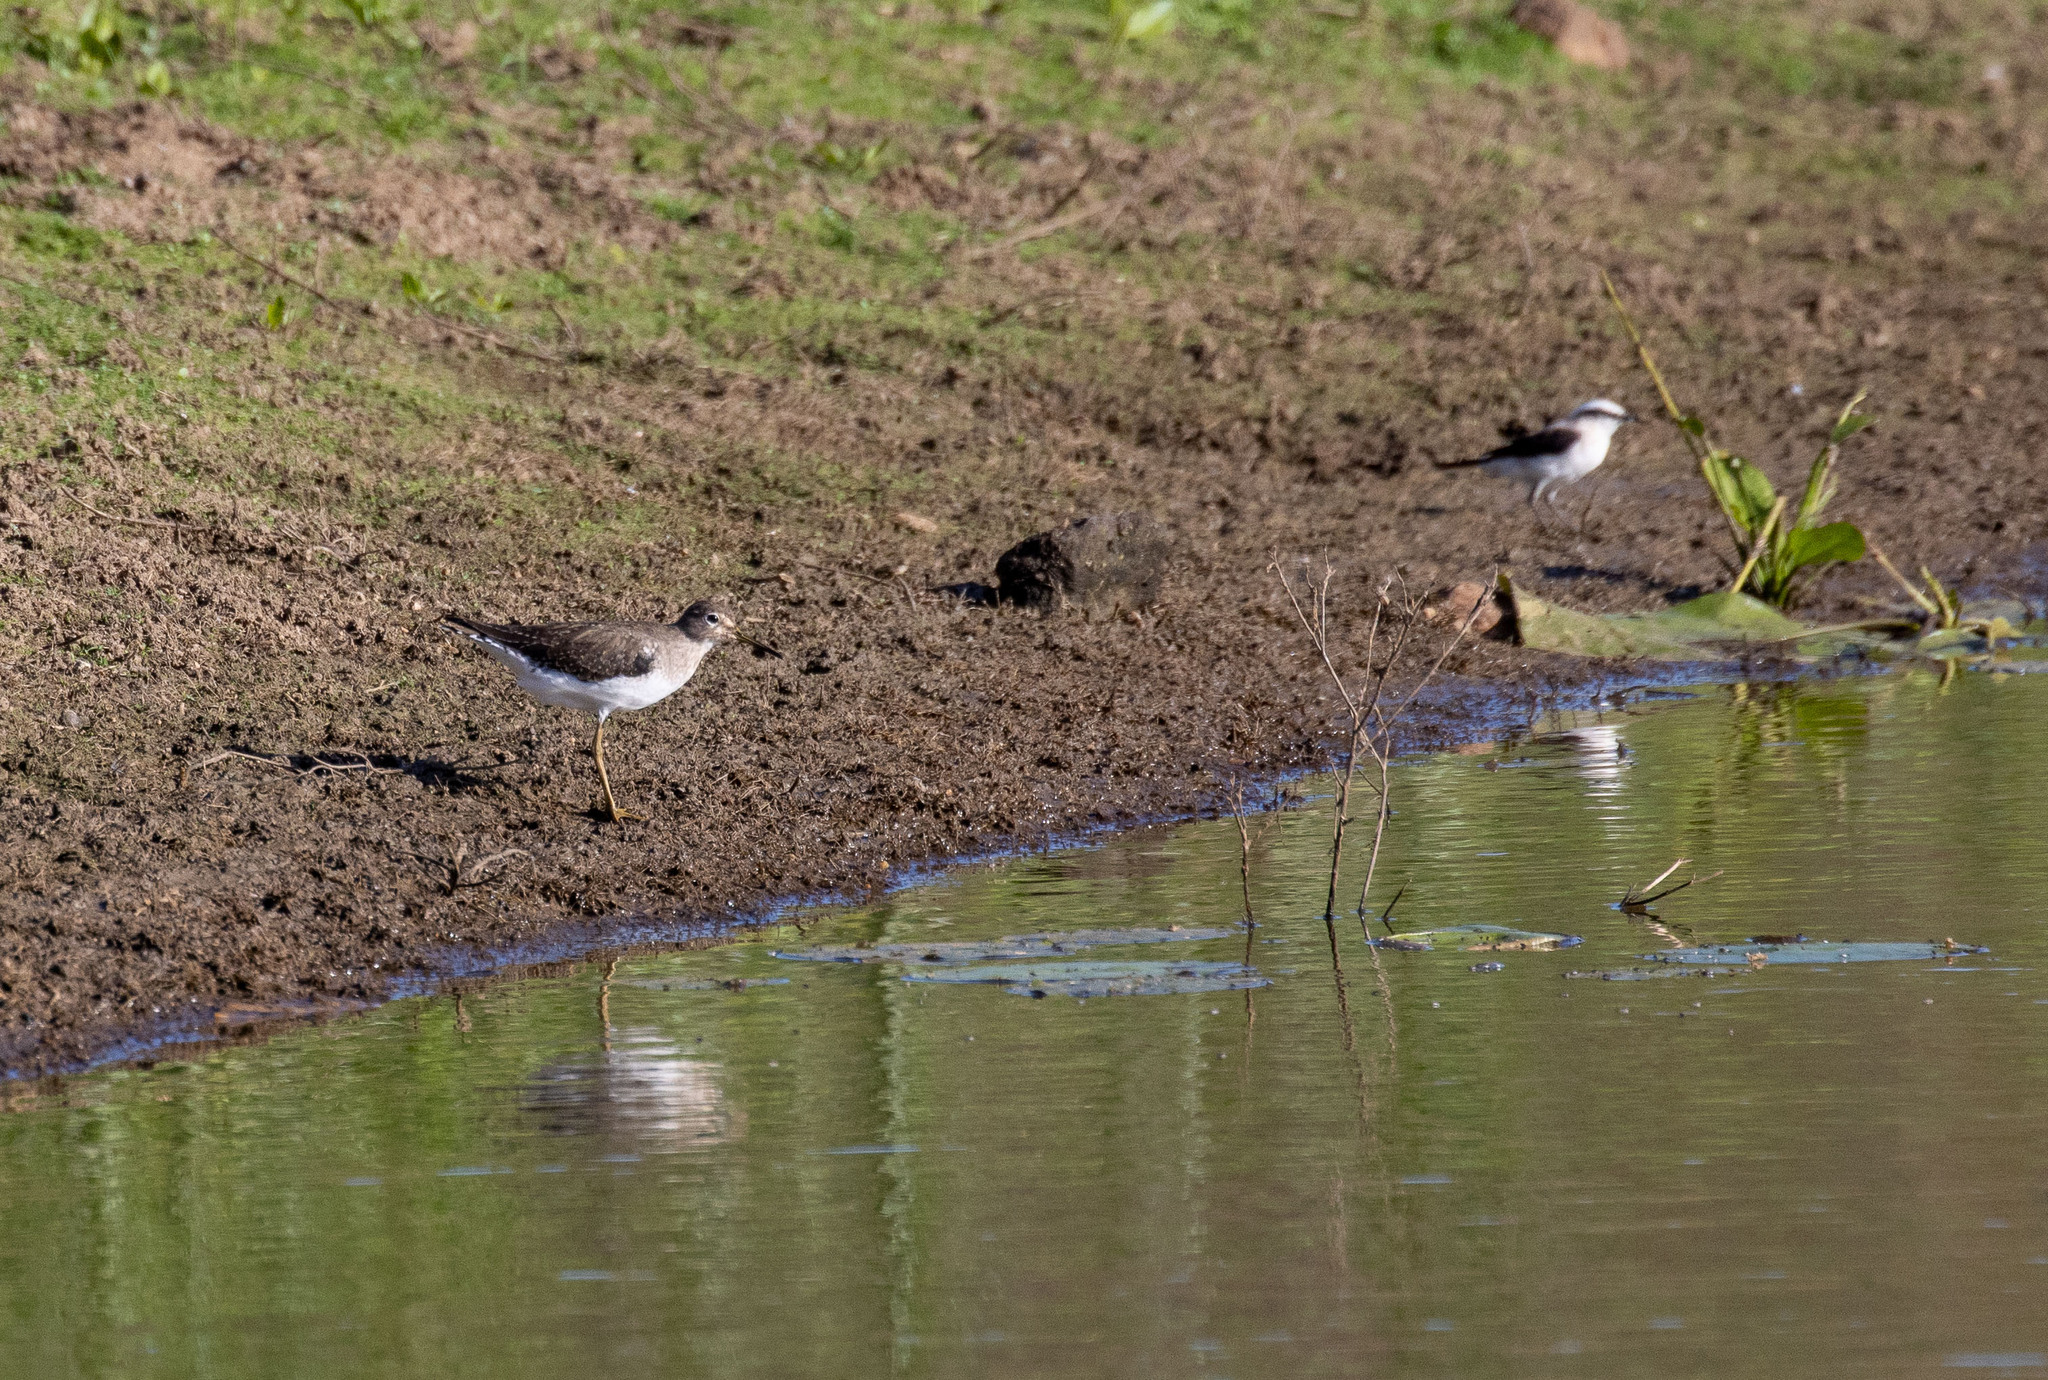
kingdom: Animalia
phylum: Chordata
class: Aves
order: Charadriiformes
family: Scolopacidae
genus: Tringa
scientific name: Tringa solitaria
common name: Solitary sandpiper
